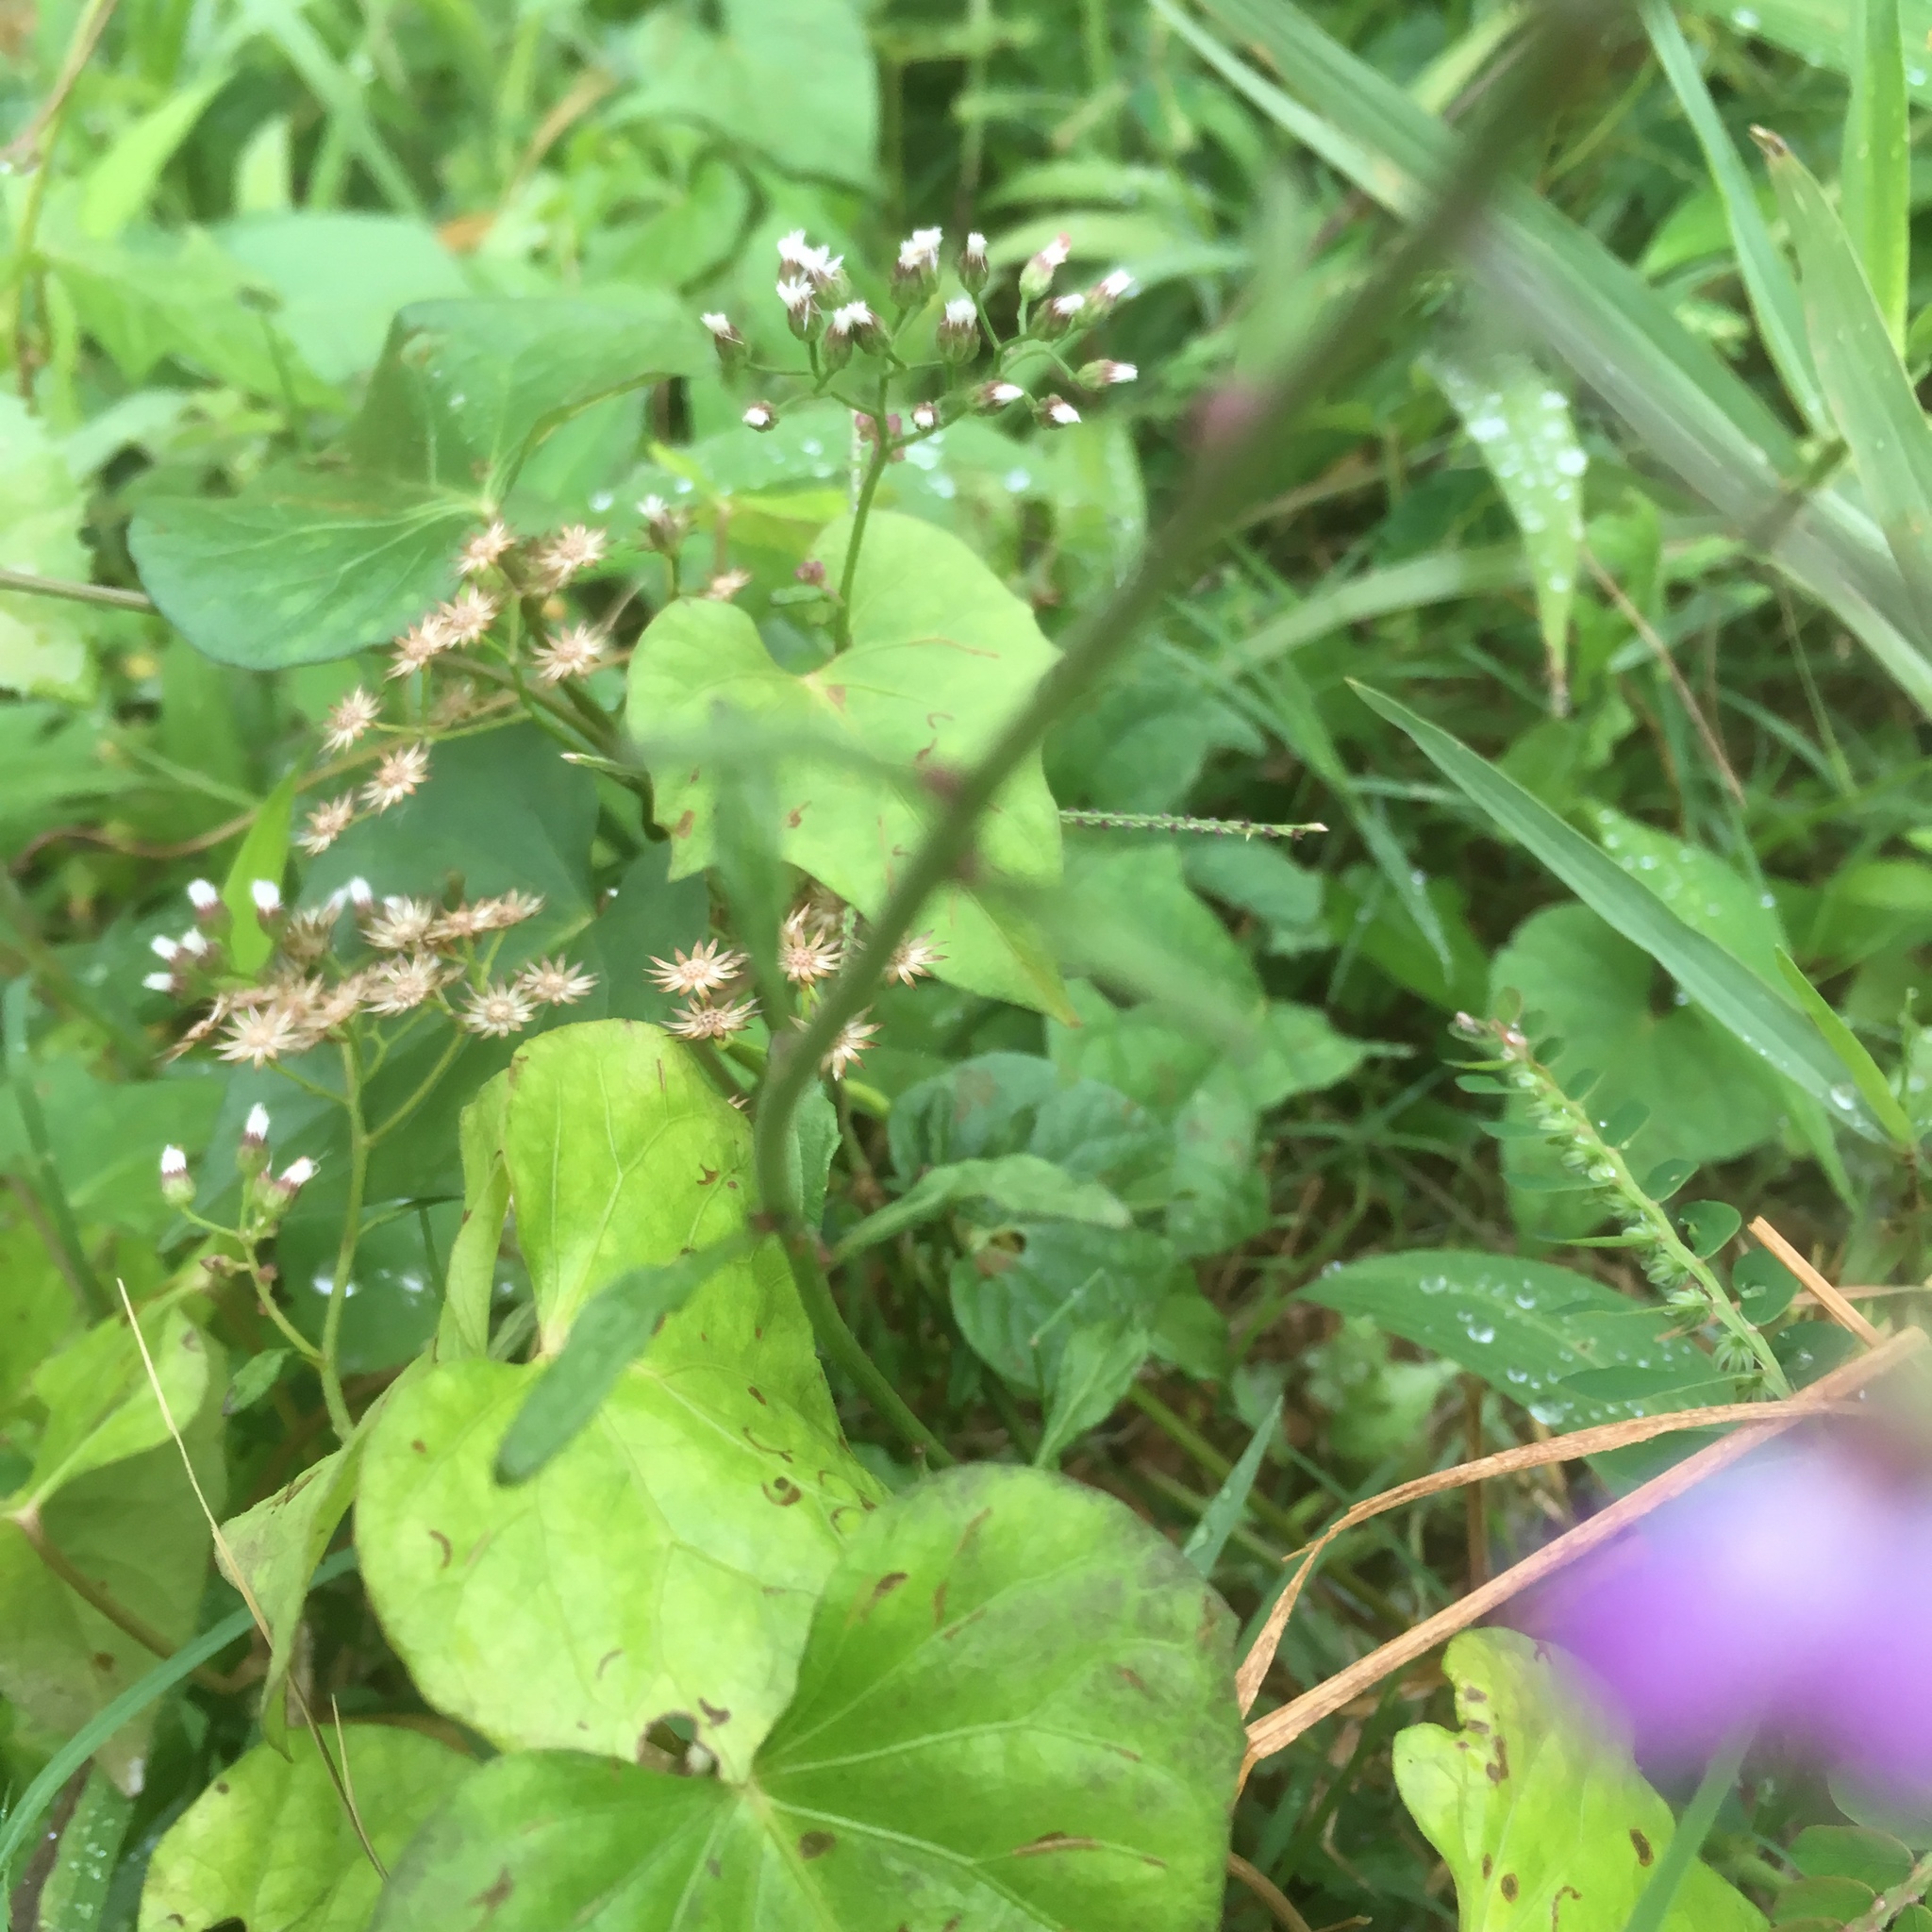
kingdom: Plantae
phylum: Tracheophyta
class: Magnoliopsida
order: Asterales
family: Asteraceae
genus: Cyanthillium
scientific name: Cyanthillium cinereum
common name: Little ironweed
